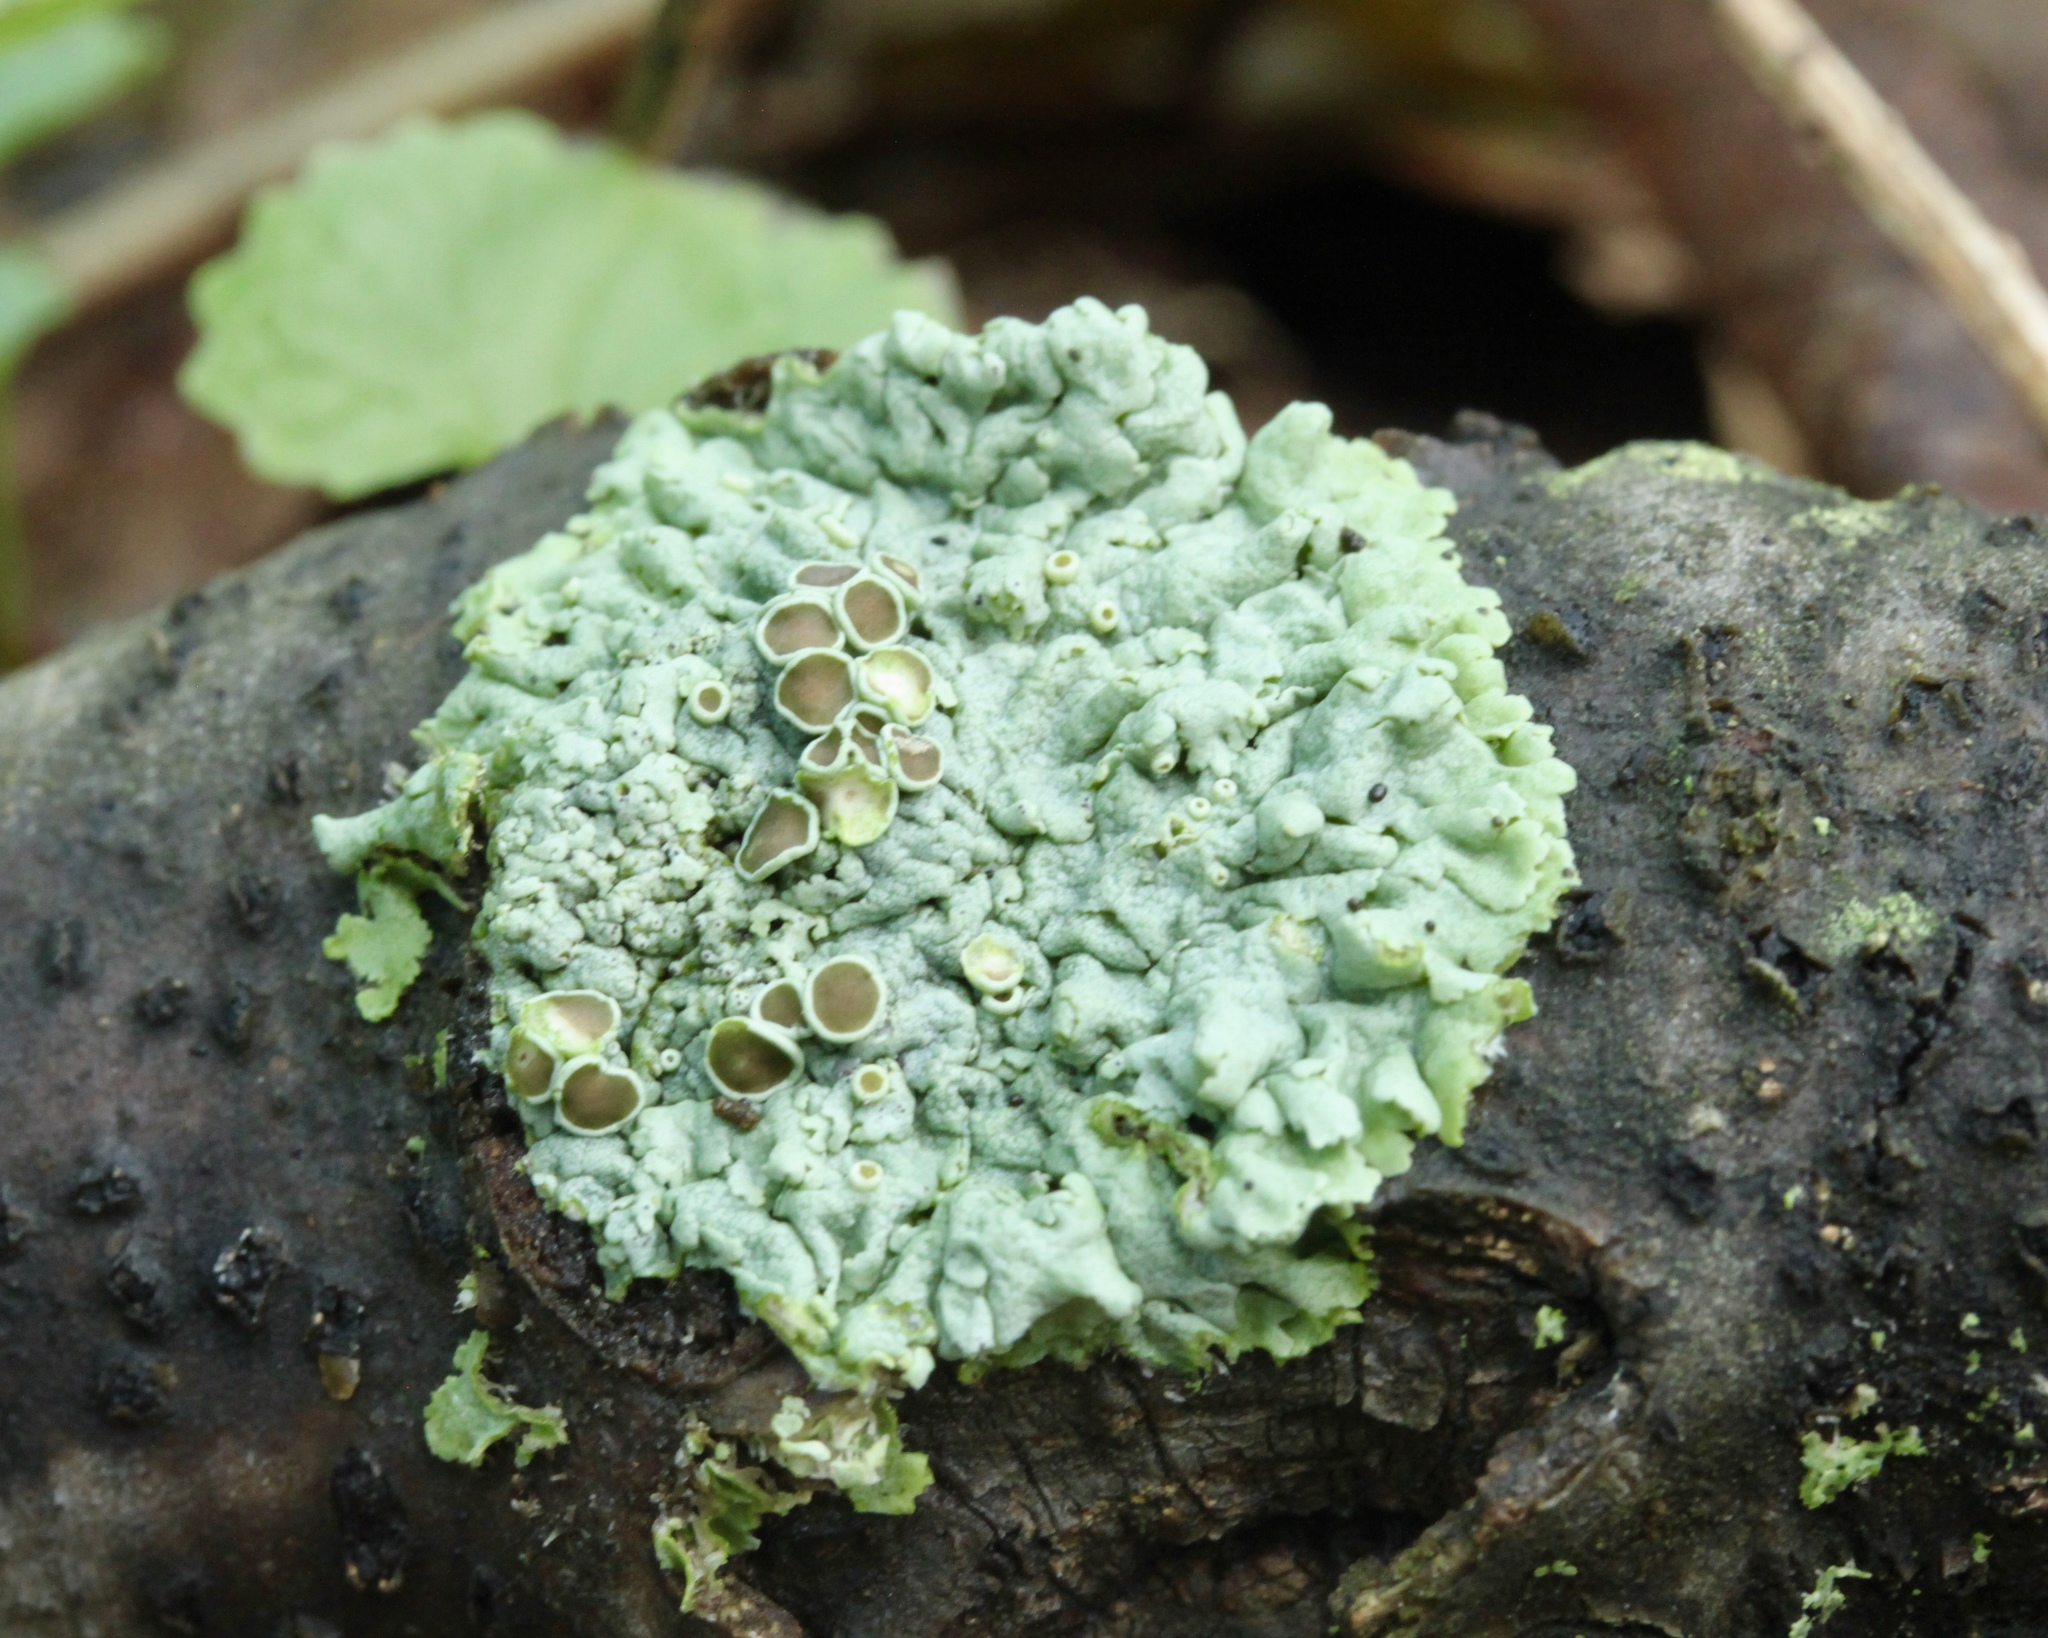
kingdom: Fungi
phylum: Ascomycota
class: Lecanoromycetes
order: Caliciales
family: Physciaceae
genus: Physcia
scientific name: Physcia stellaris
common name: Star rosette lichen
